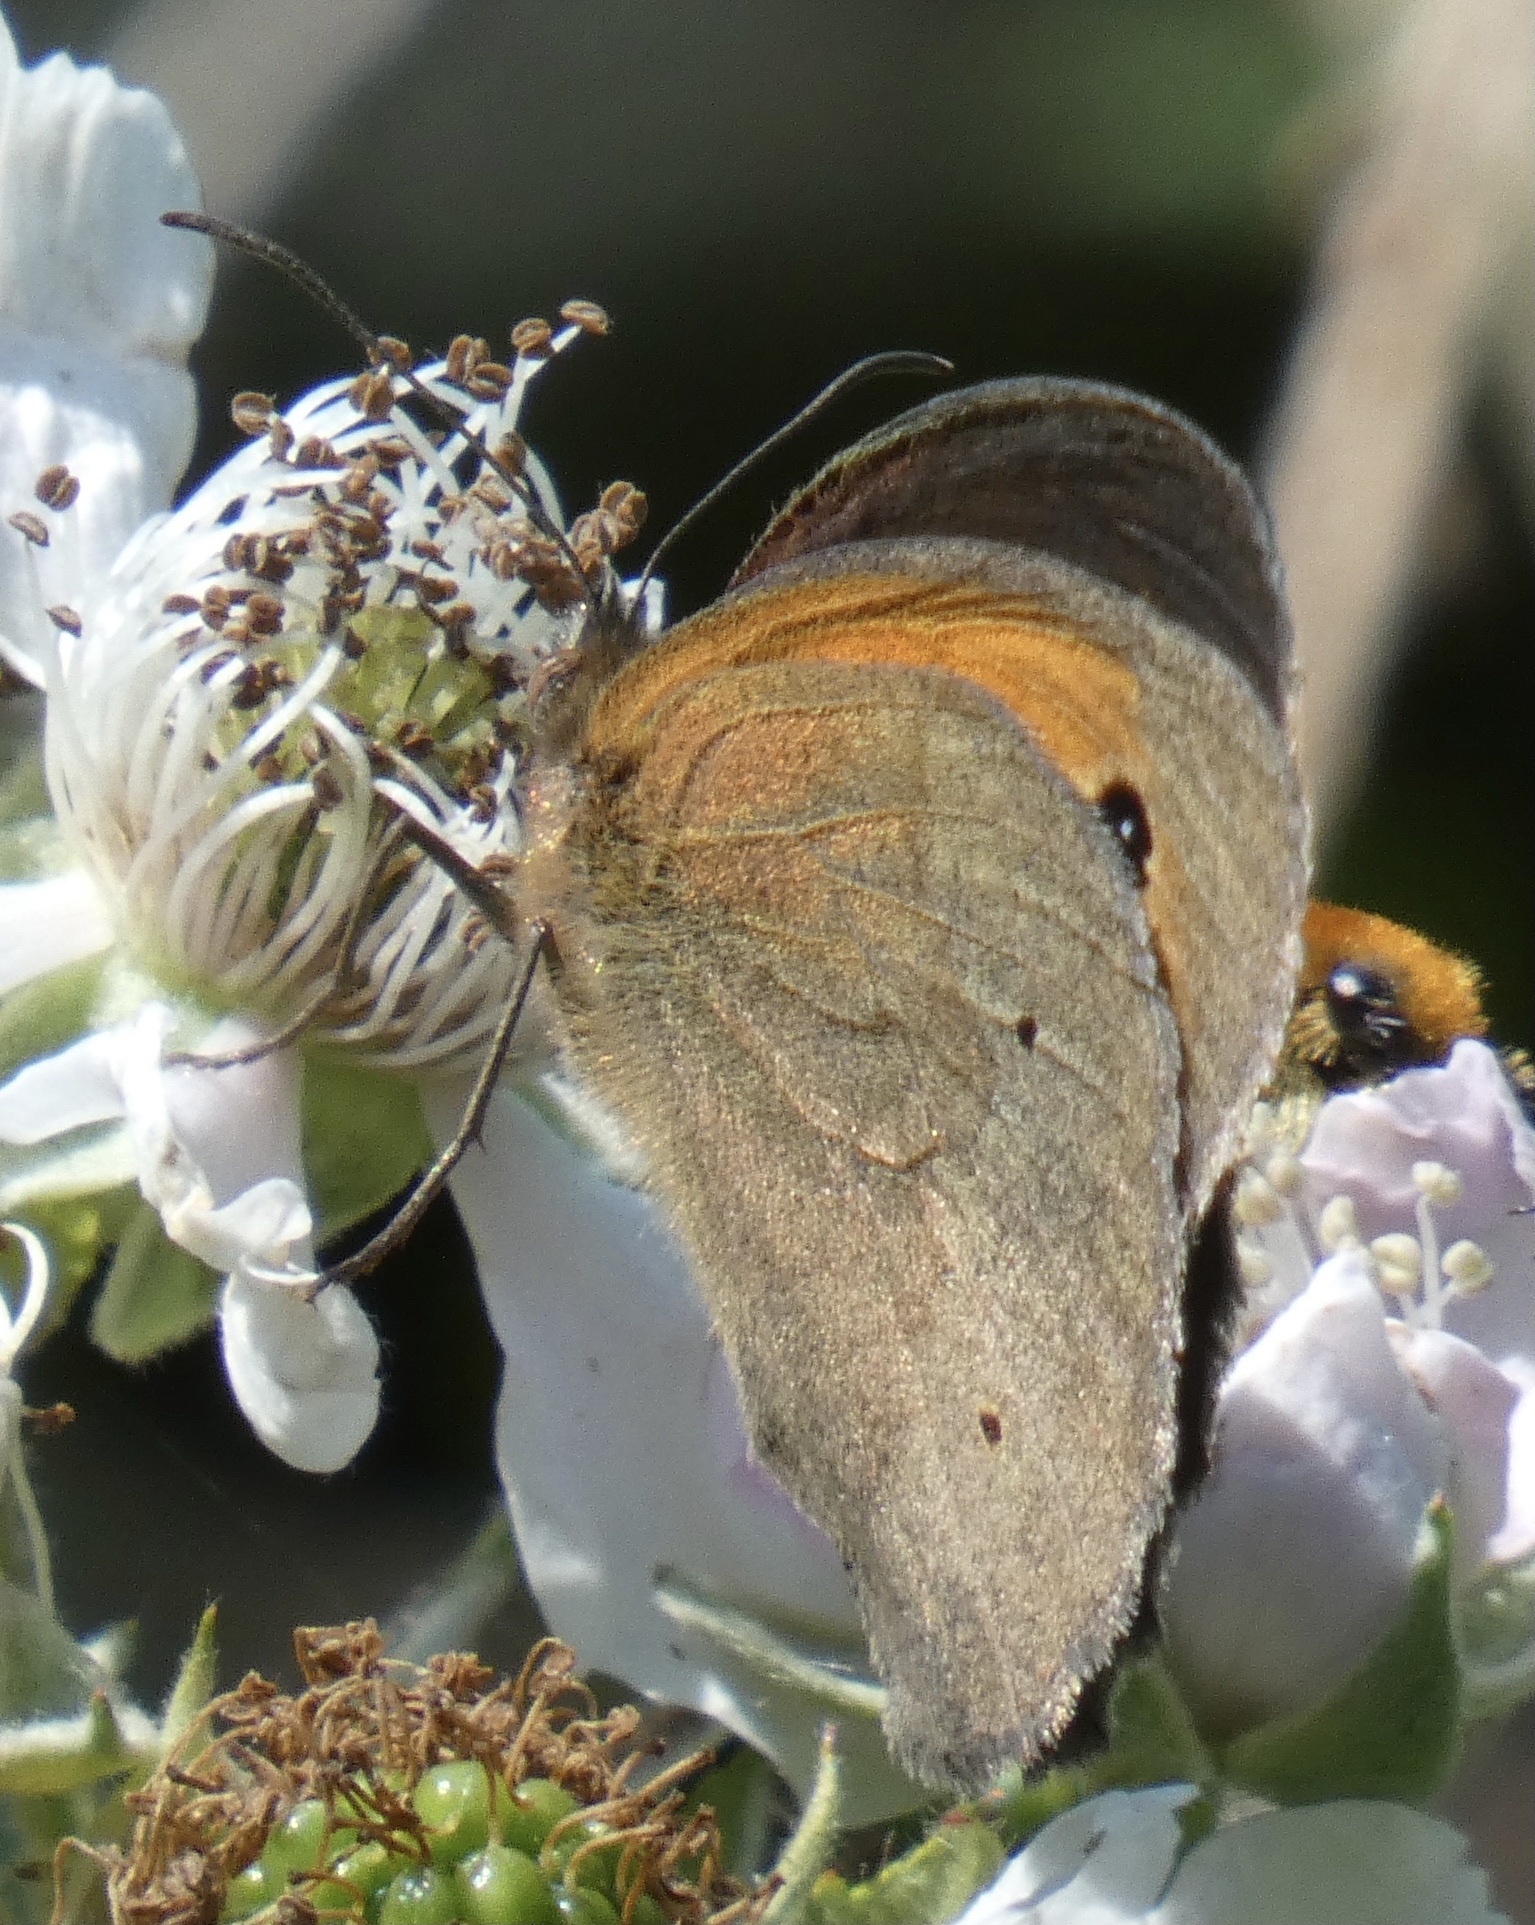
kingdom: Animalia
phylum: Arthropoda
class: Insecta
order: Lepidoptera
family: Nymphalidae
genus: Maniola
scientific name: Maniola jurtina
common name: Meadow brown
